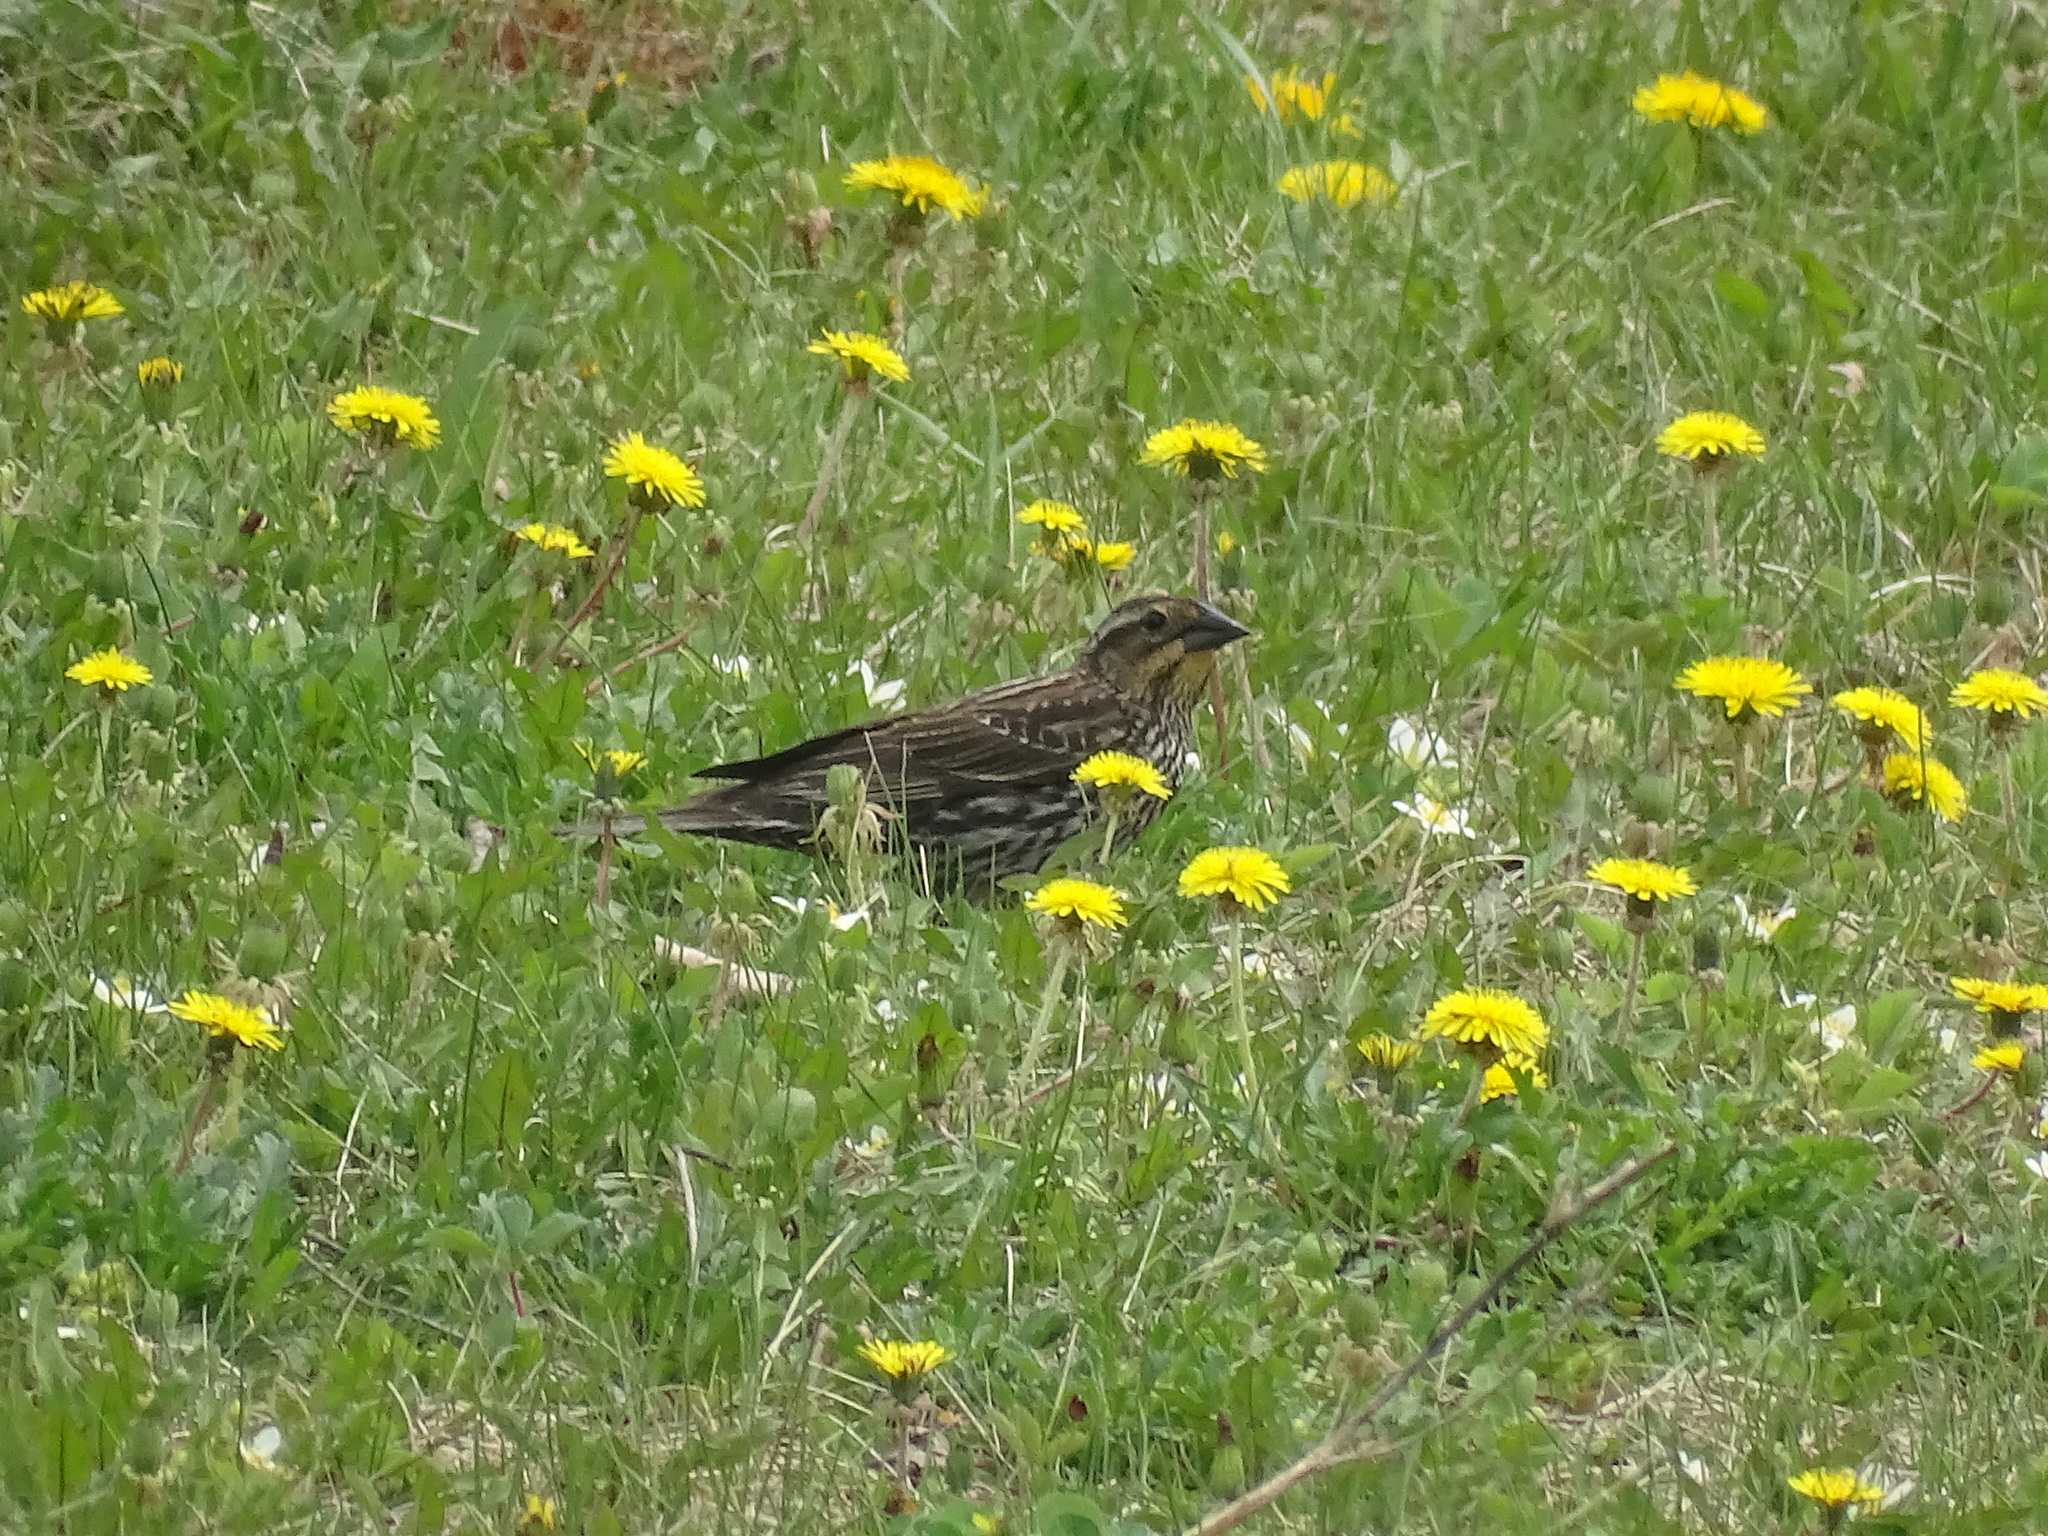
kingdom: Animalia
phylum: Chordata
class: Aves
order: Passeriformes
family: Icteridae
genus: Agelaius
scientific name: Agelaius phoeniceus
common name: Red-winged blackbird
